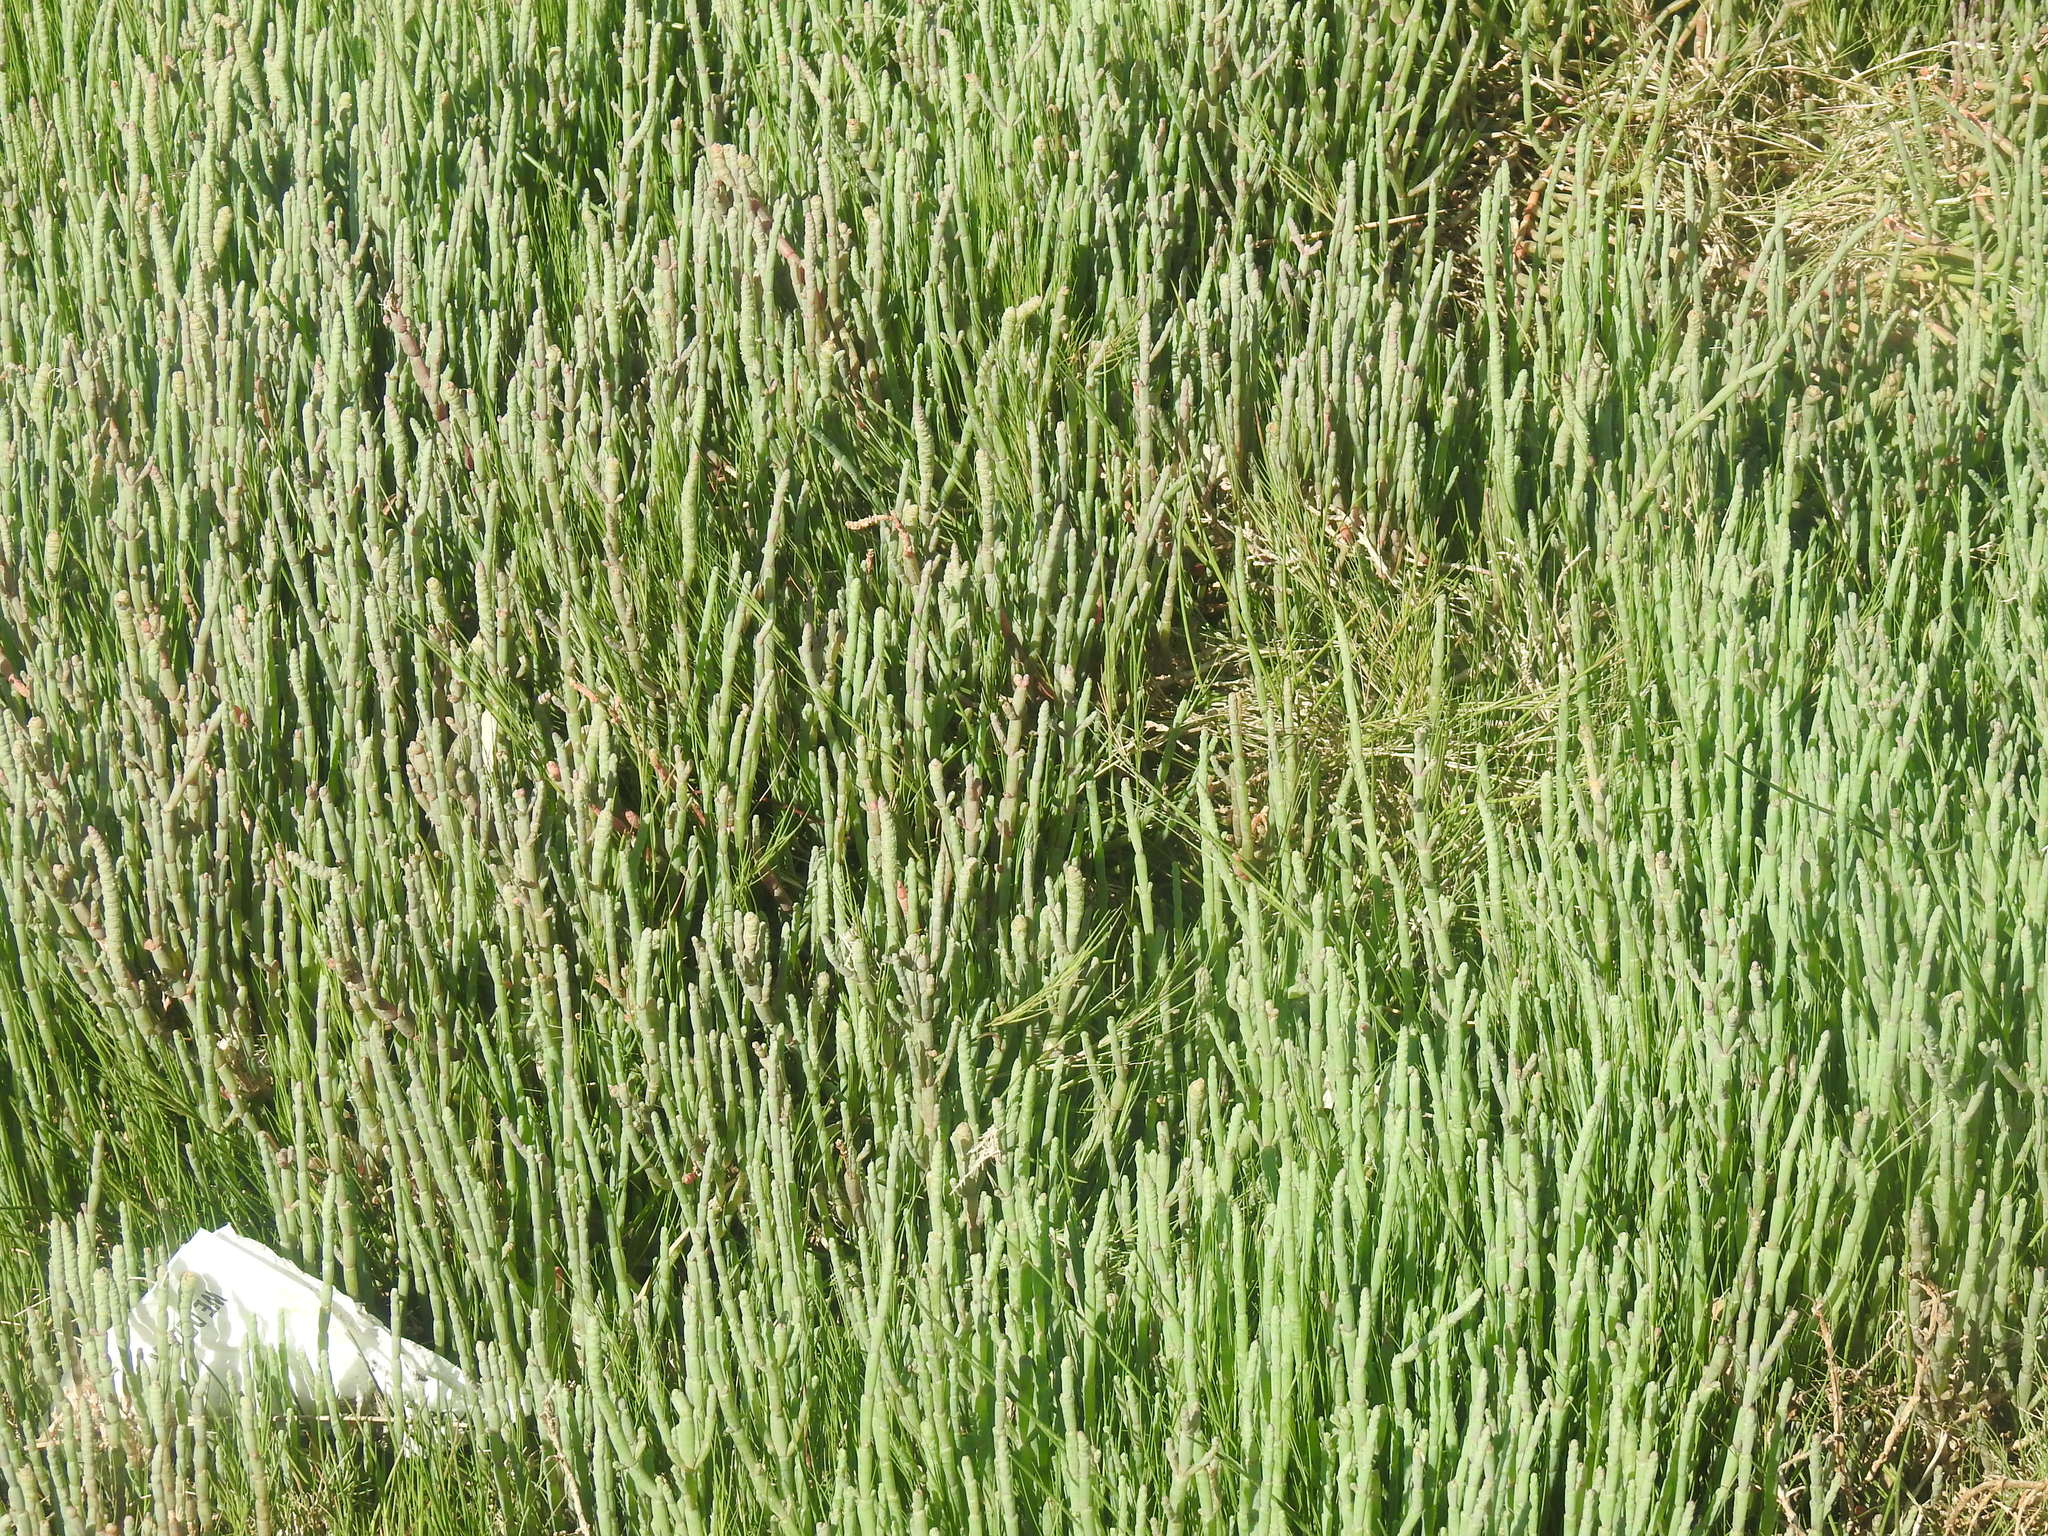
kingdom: Plantae
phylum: Tracheophyta
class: Magnoliopsida
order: Malpighiales
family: Euphorbiaceae
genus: Euphorbia
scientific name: Euphorbia mauritanica
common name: Jackal's-food
